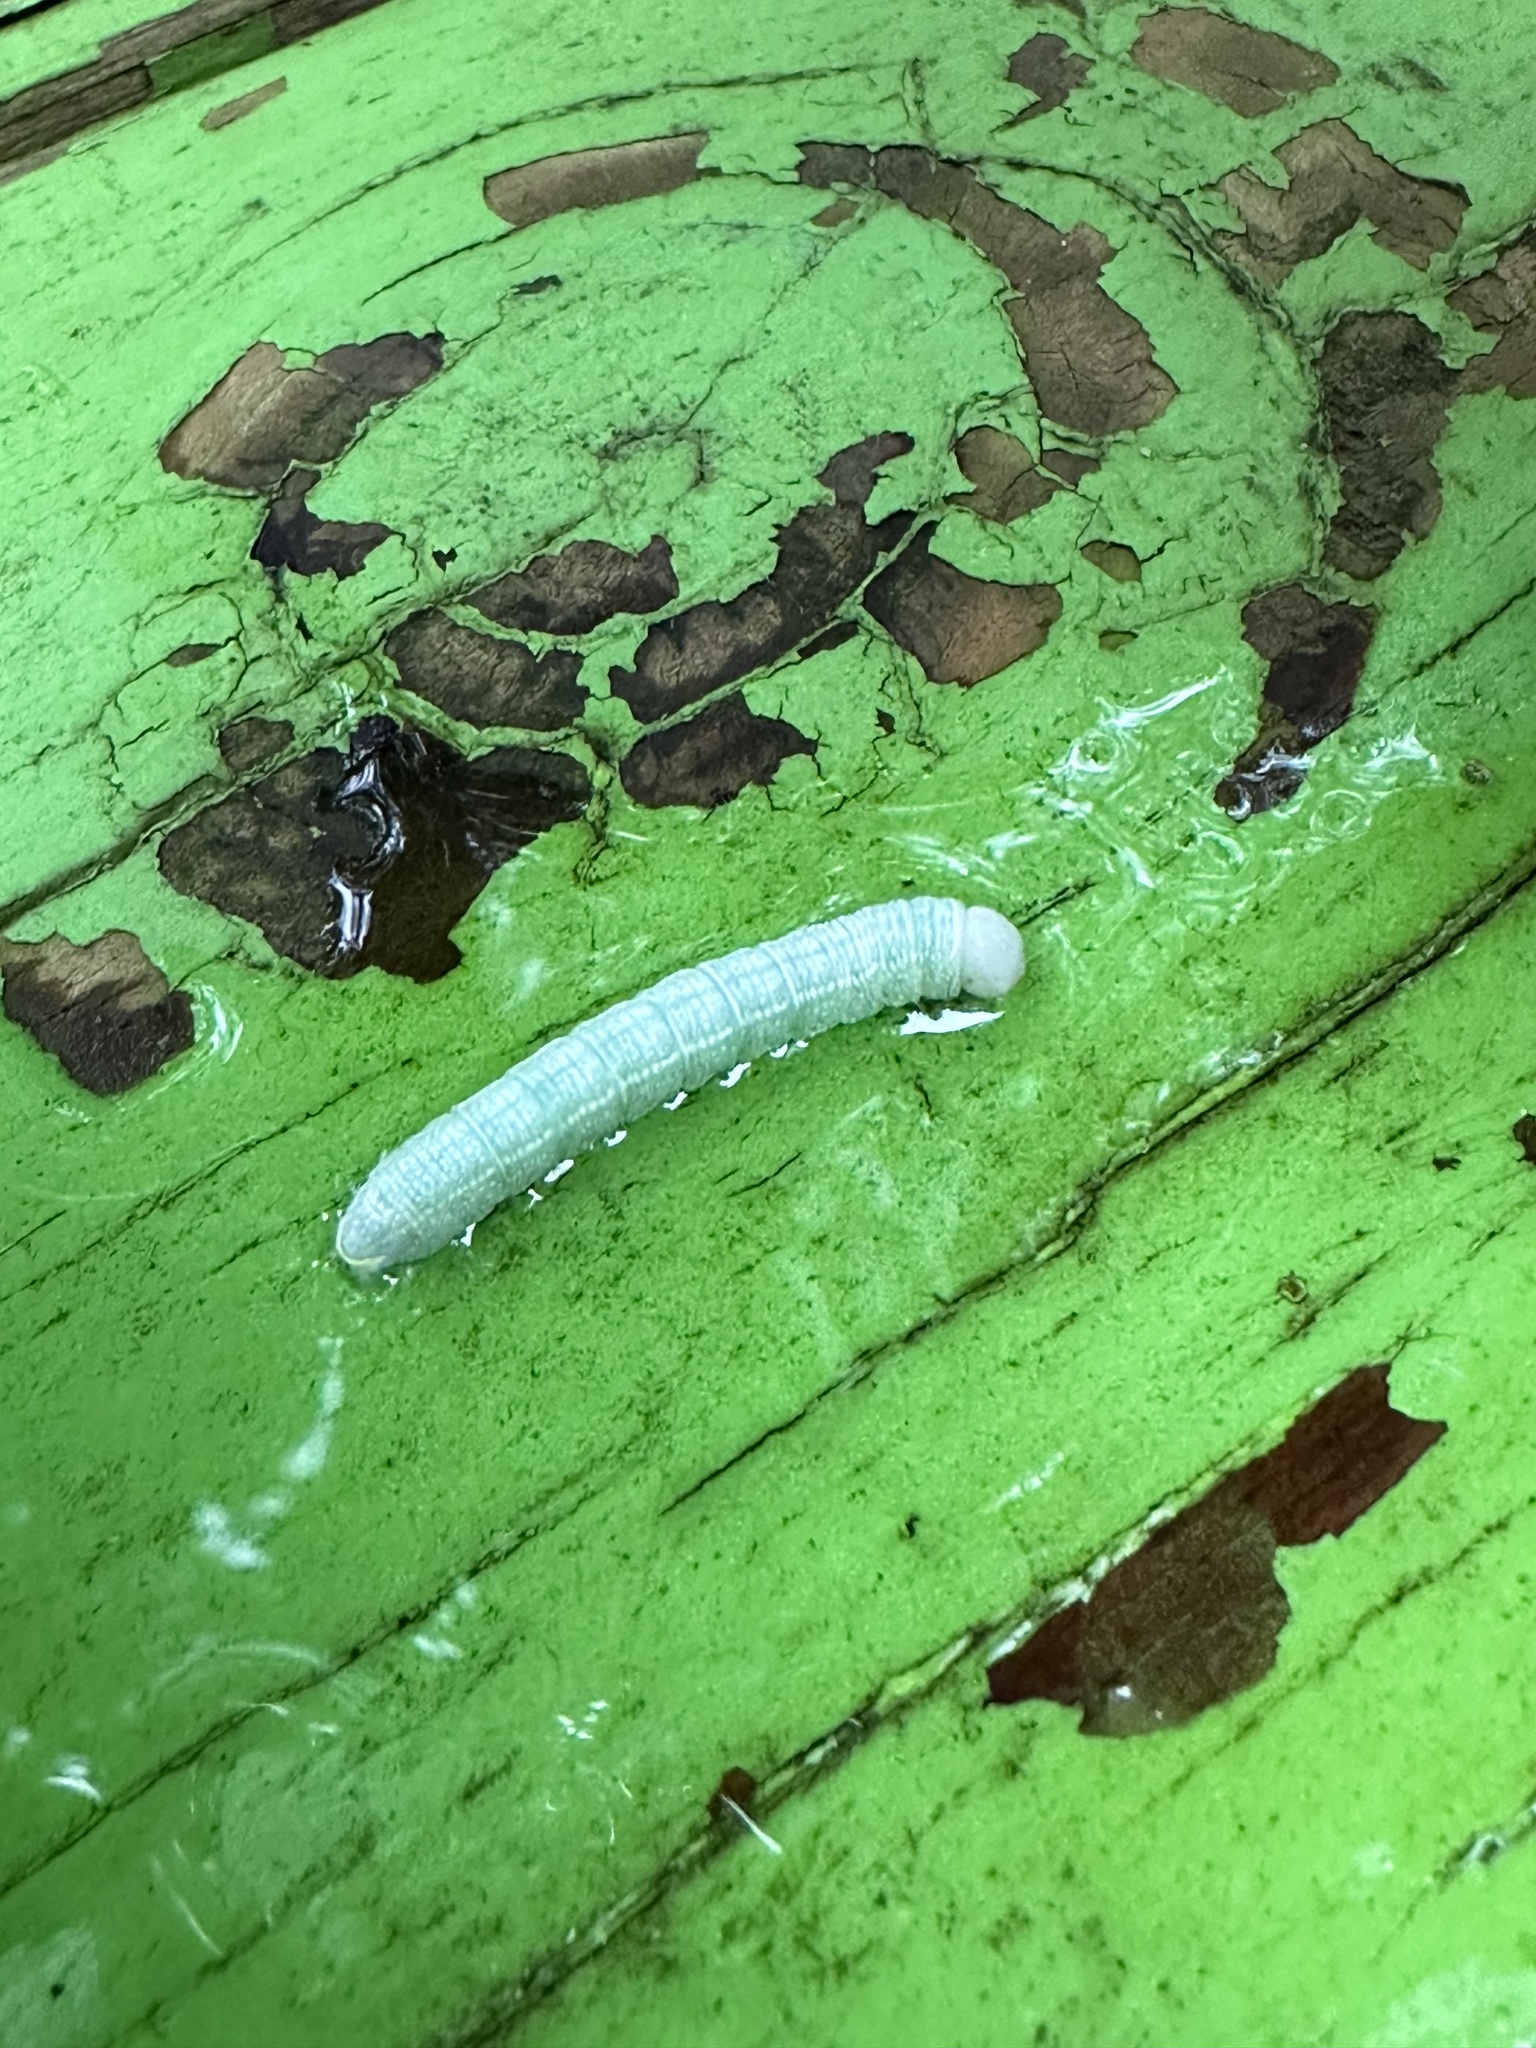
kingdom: Animalia
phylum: Arthropoda
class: Insecta
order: Lepidoptera
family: Notodontidae
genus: Nadata
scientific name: Nadata gibbosa
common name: White-dotted prominent
